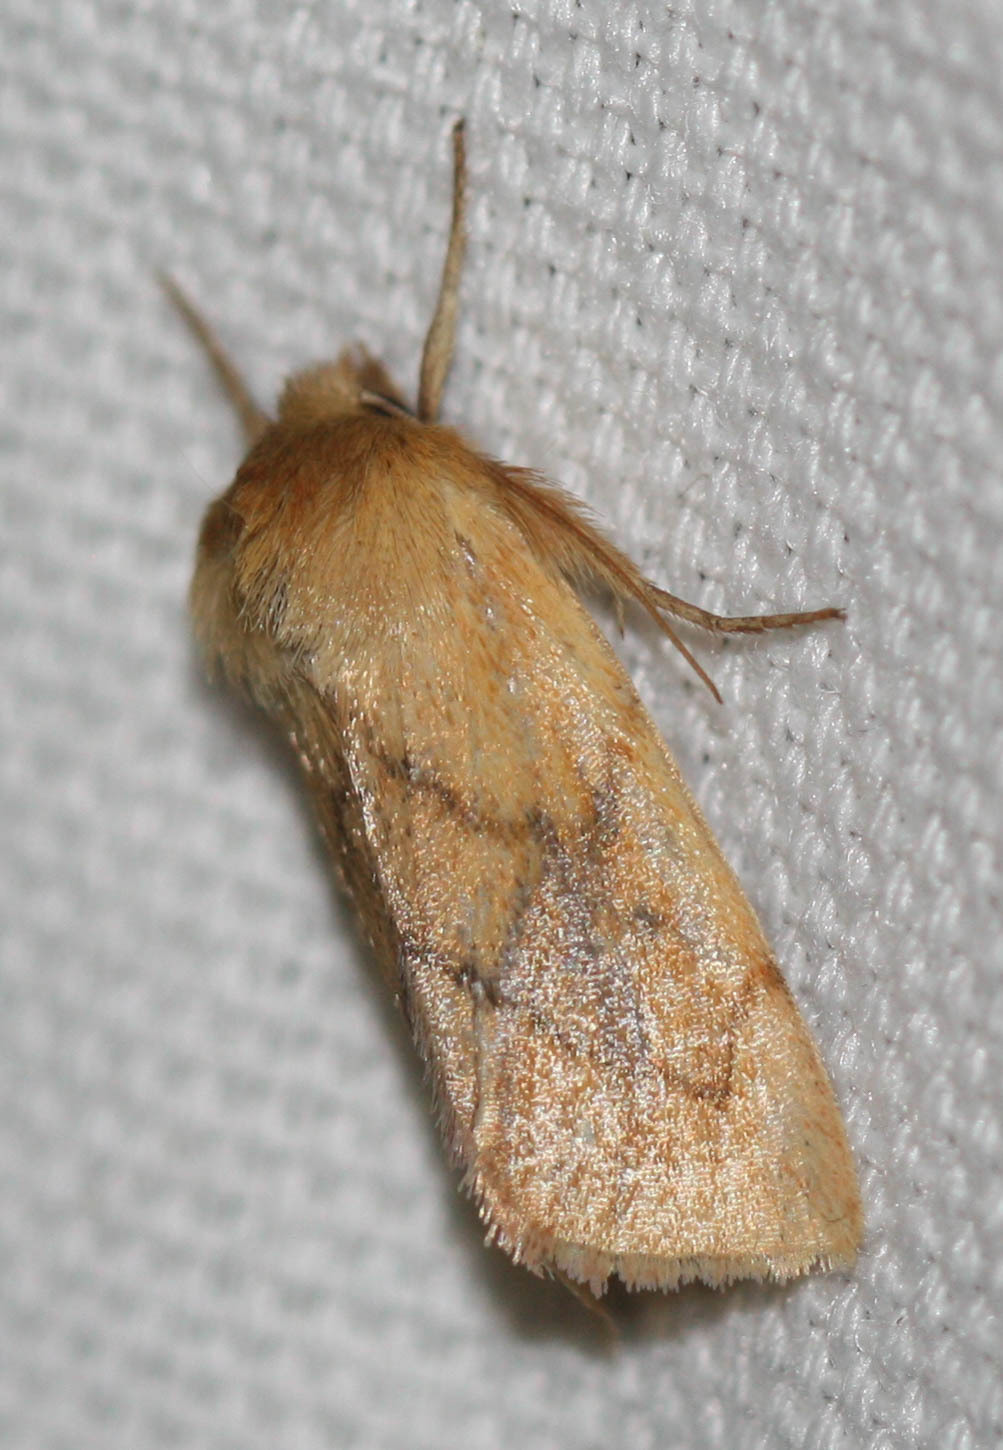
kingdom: Animalia
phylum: Arthropoda
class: Insecta
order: Lepidoptera
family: Noctuidae
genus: Zosteropoda
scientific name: Zosteropoda hirtipes
